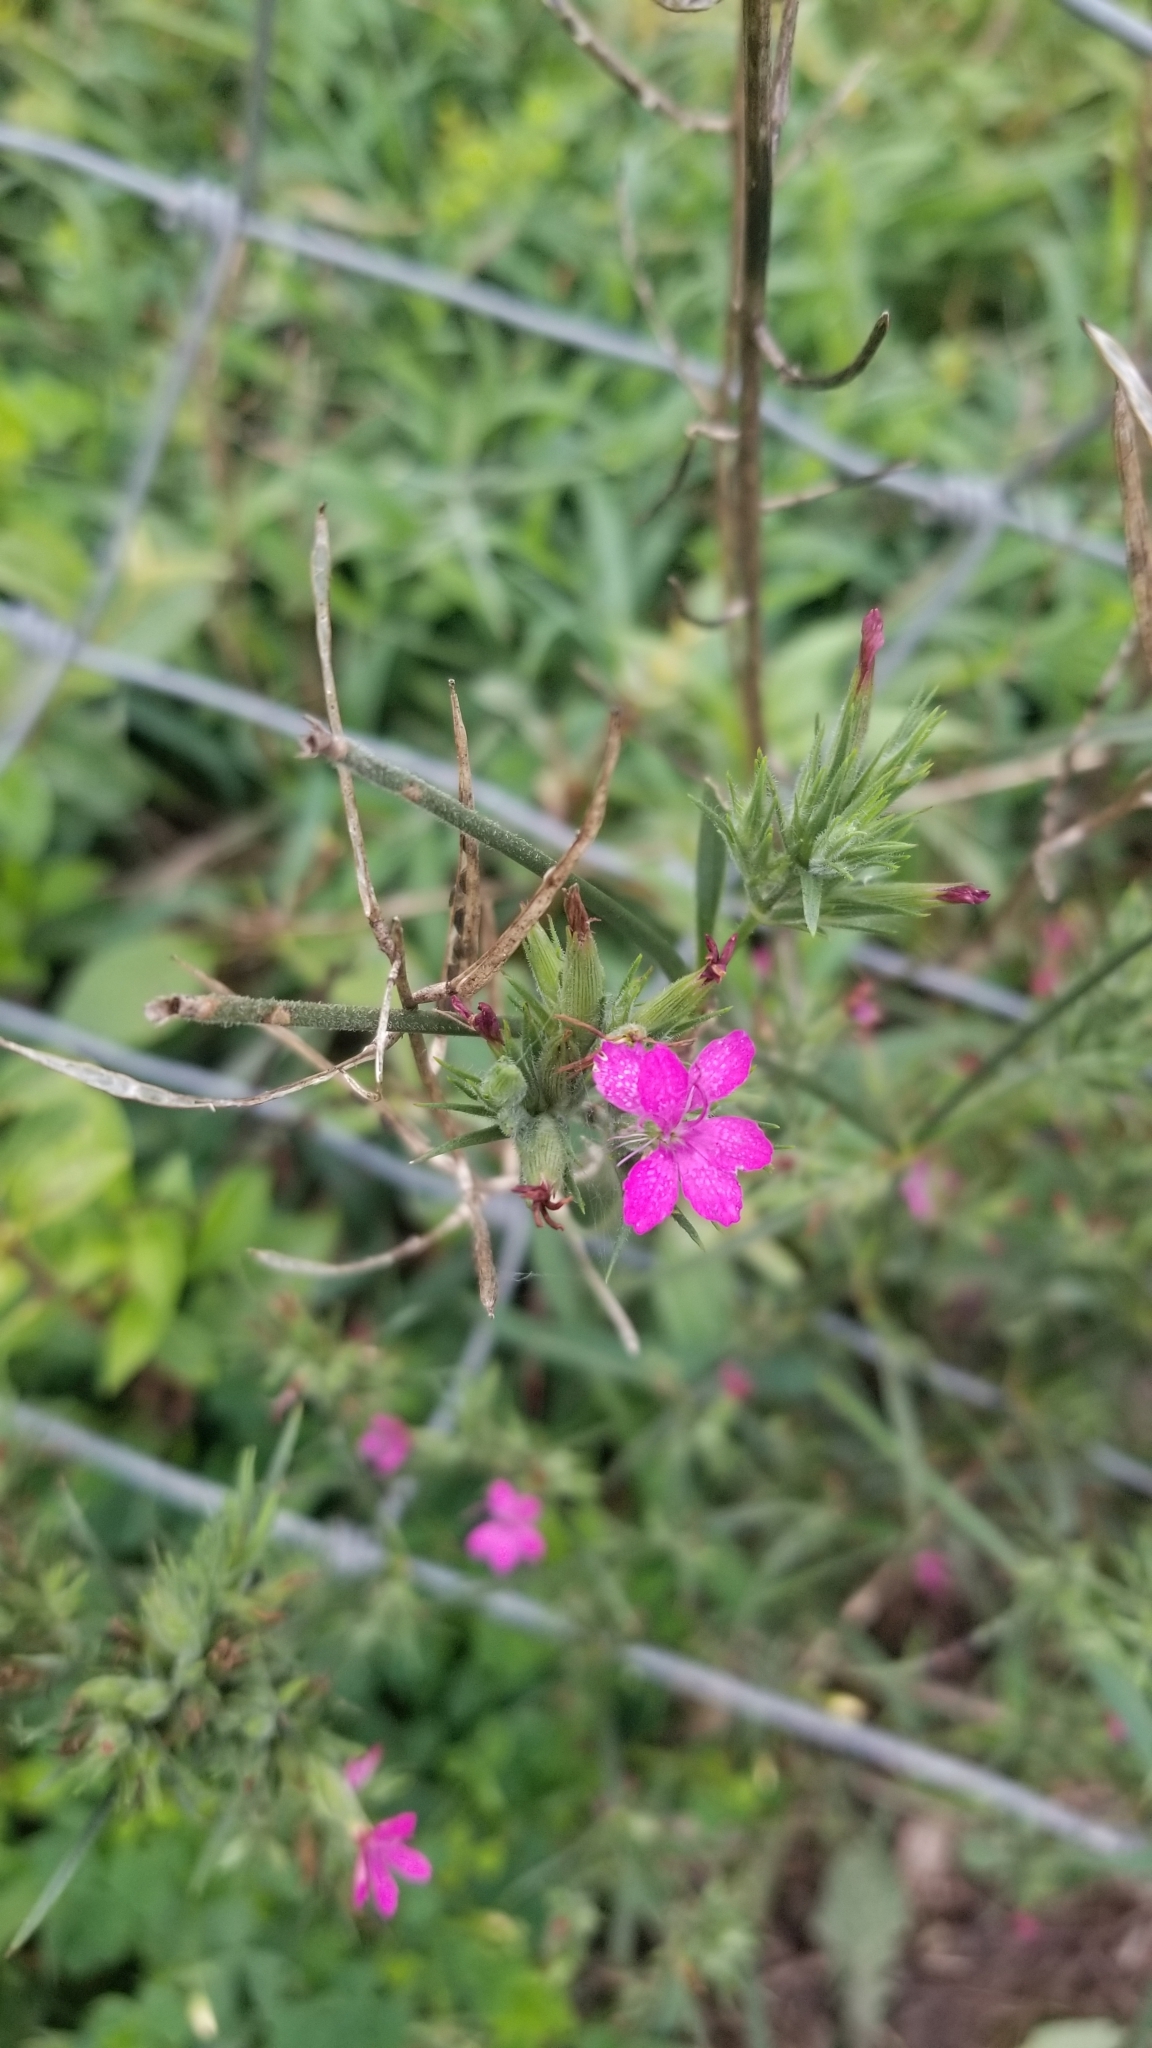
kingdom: Plantae
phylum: Tracheophyta
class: Magnoliopsida
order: Caryophyllales
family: Caryophyllaceae
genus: Dianthus
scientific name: Dianthus armeria
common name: Deptford pink
